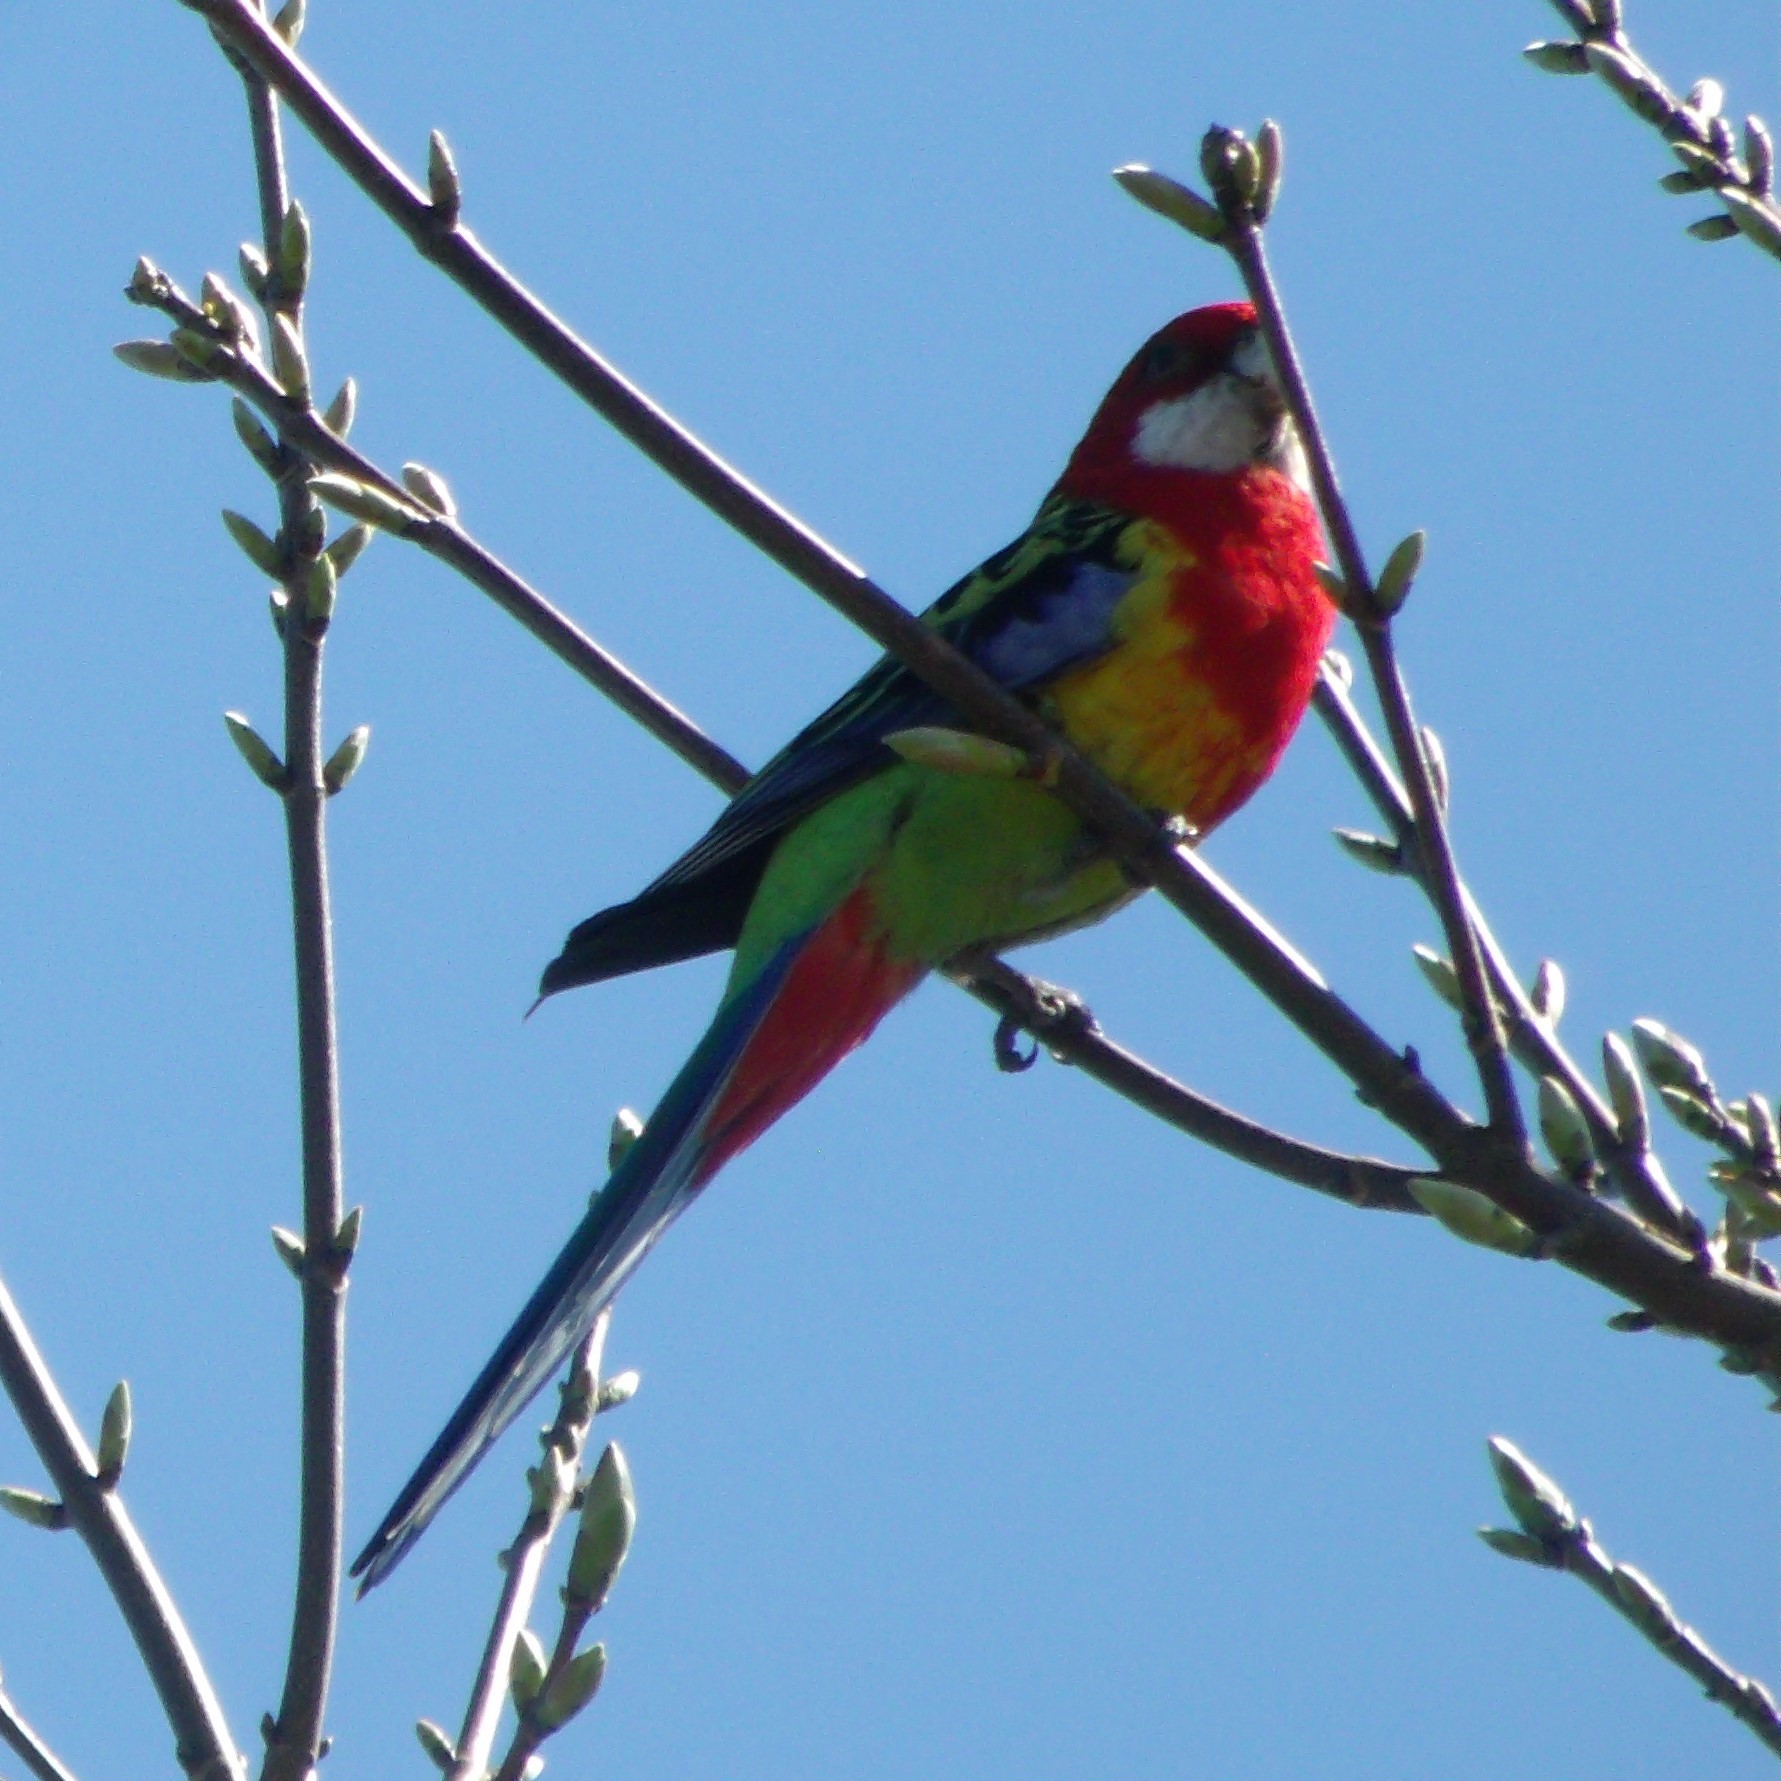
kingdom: Animalia
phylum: Chordata
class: Aves
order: Psittaciformes
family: Psittacidae
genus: Platycercus
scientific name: Platycercus eximius
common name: Eastern rosella
